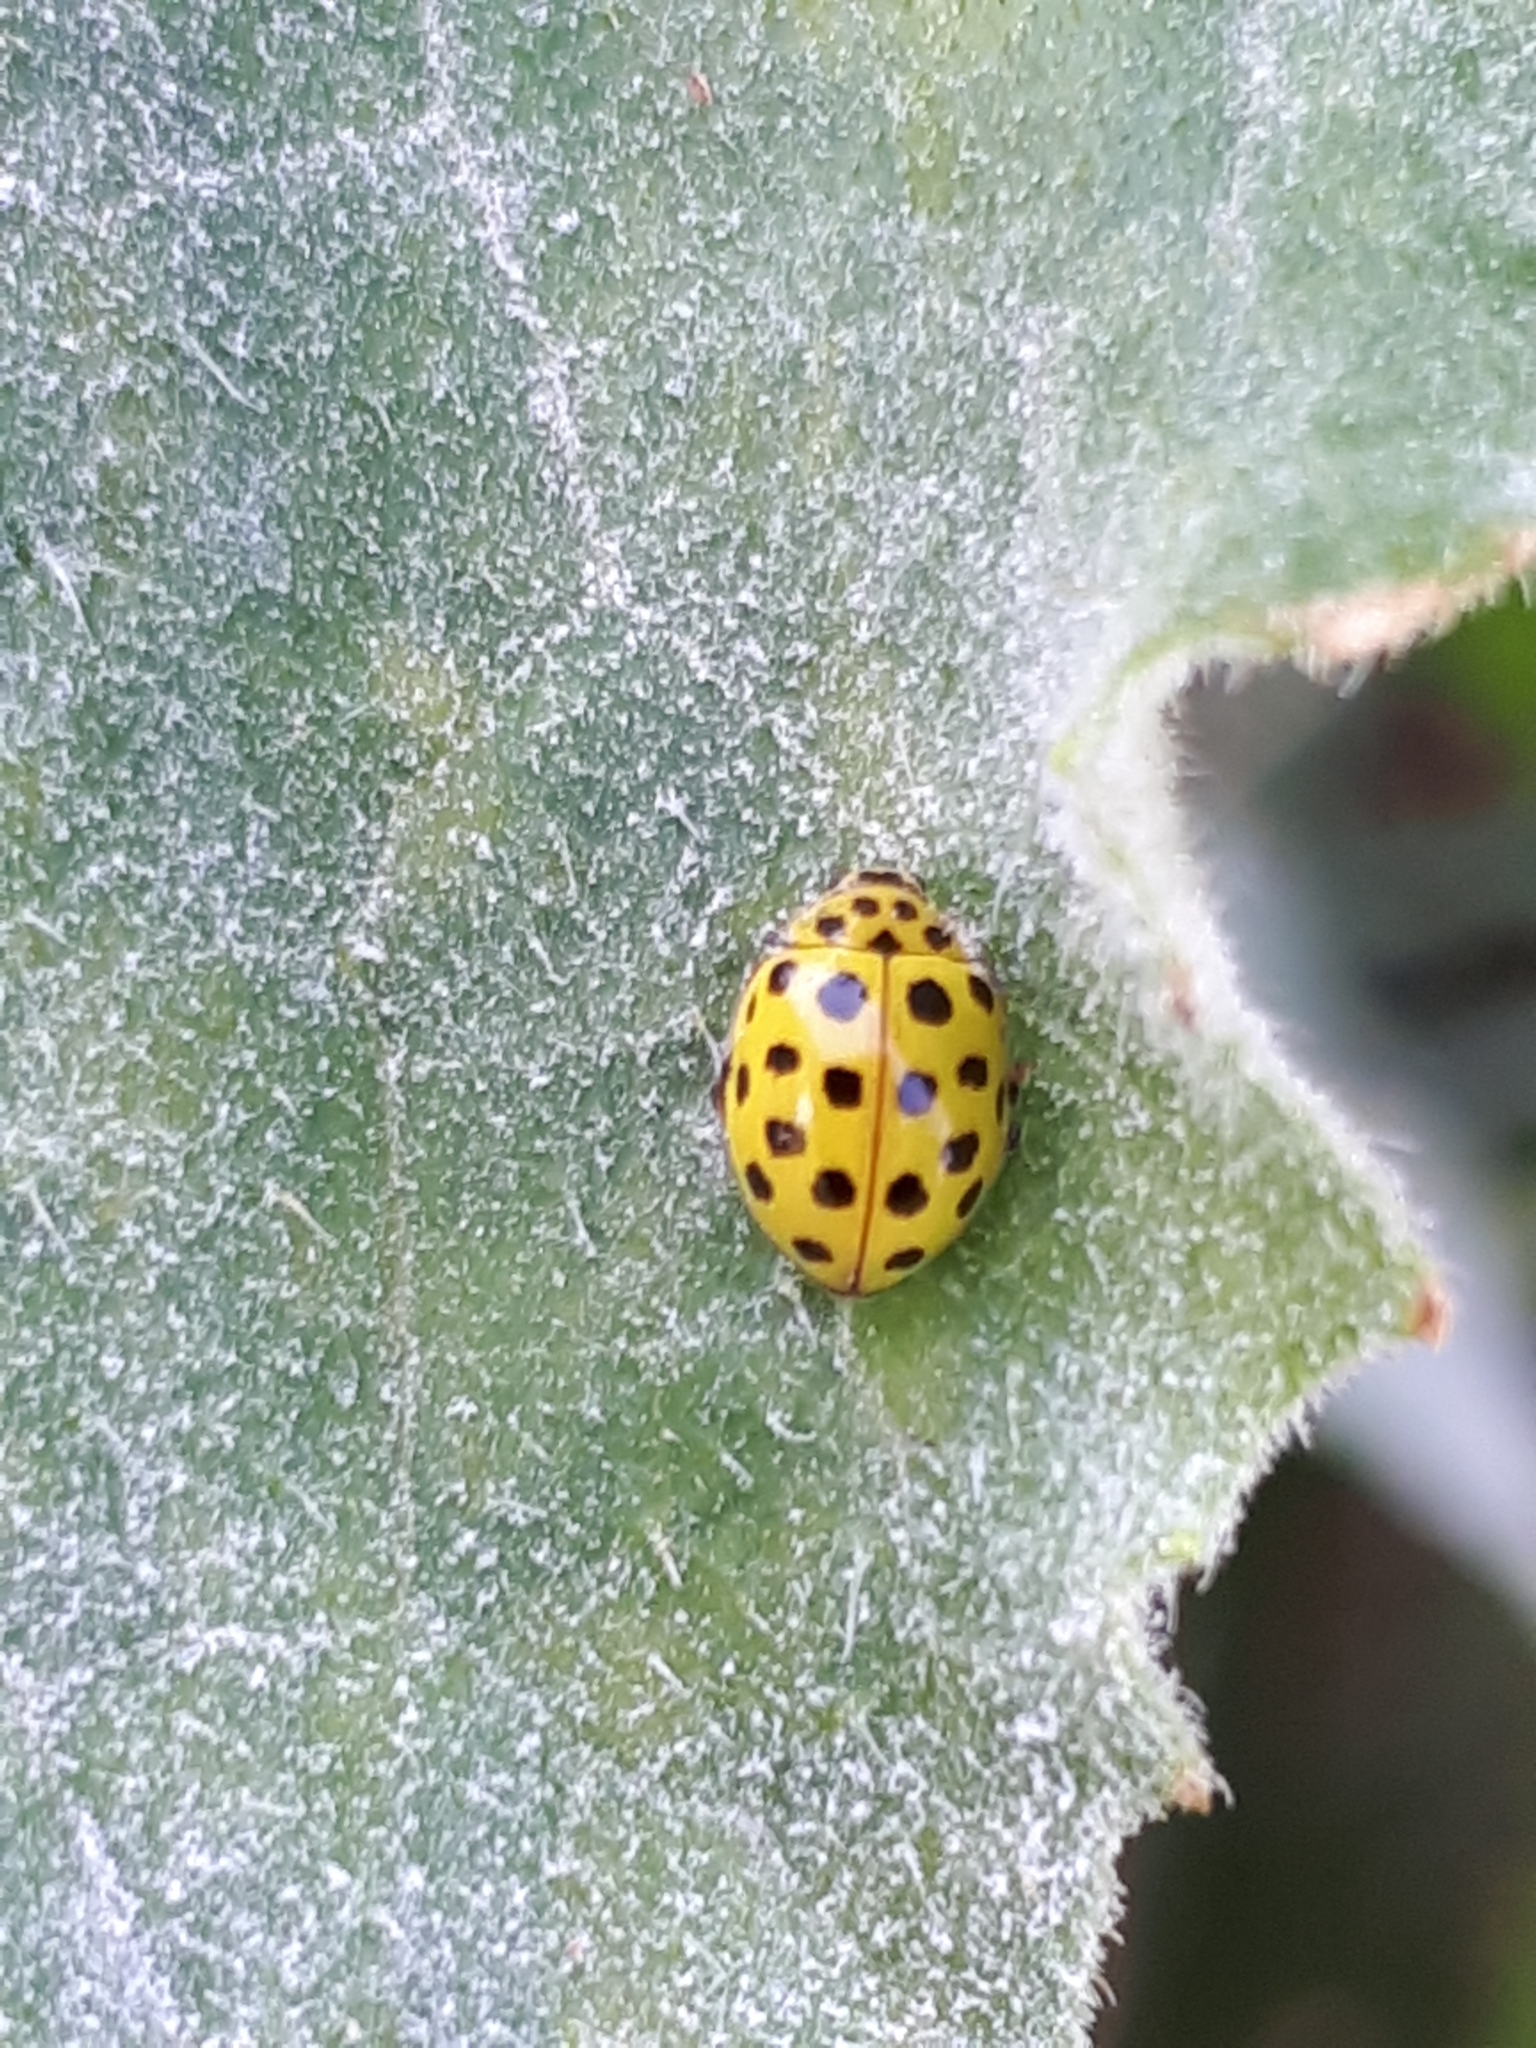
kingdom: Animalia
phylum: Arthropoda
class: Insecta
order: Coleoptera
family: Coccinellidae
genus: Psyllobora
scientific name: Psyllobora vigintiduopunctata
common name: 22-spot ladybird
